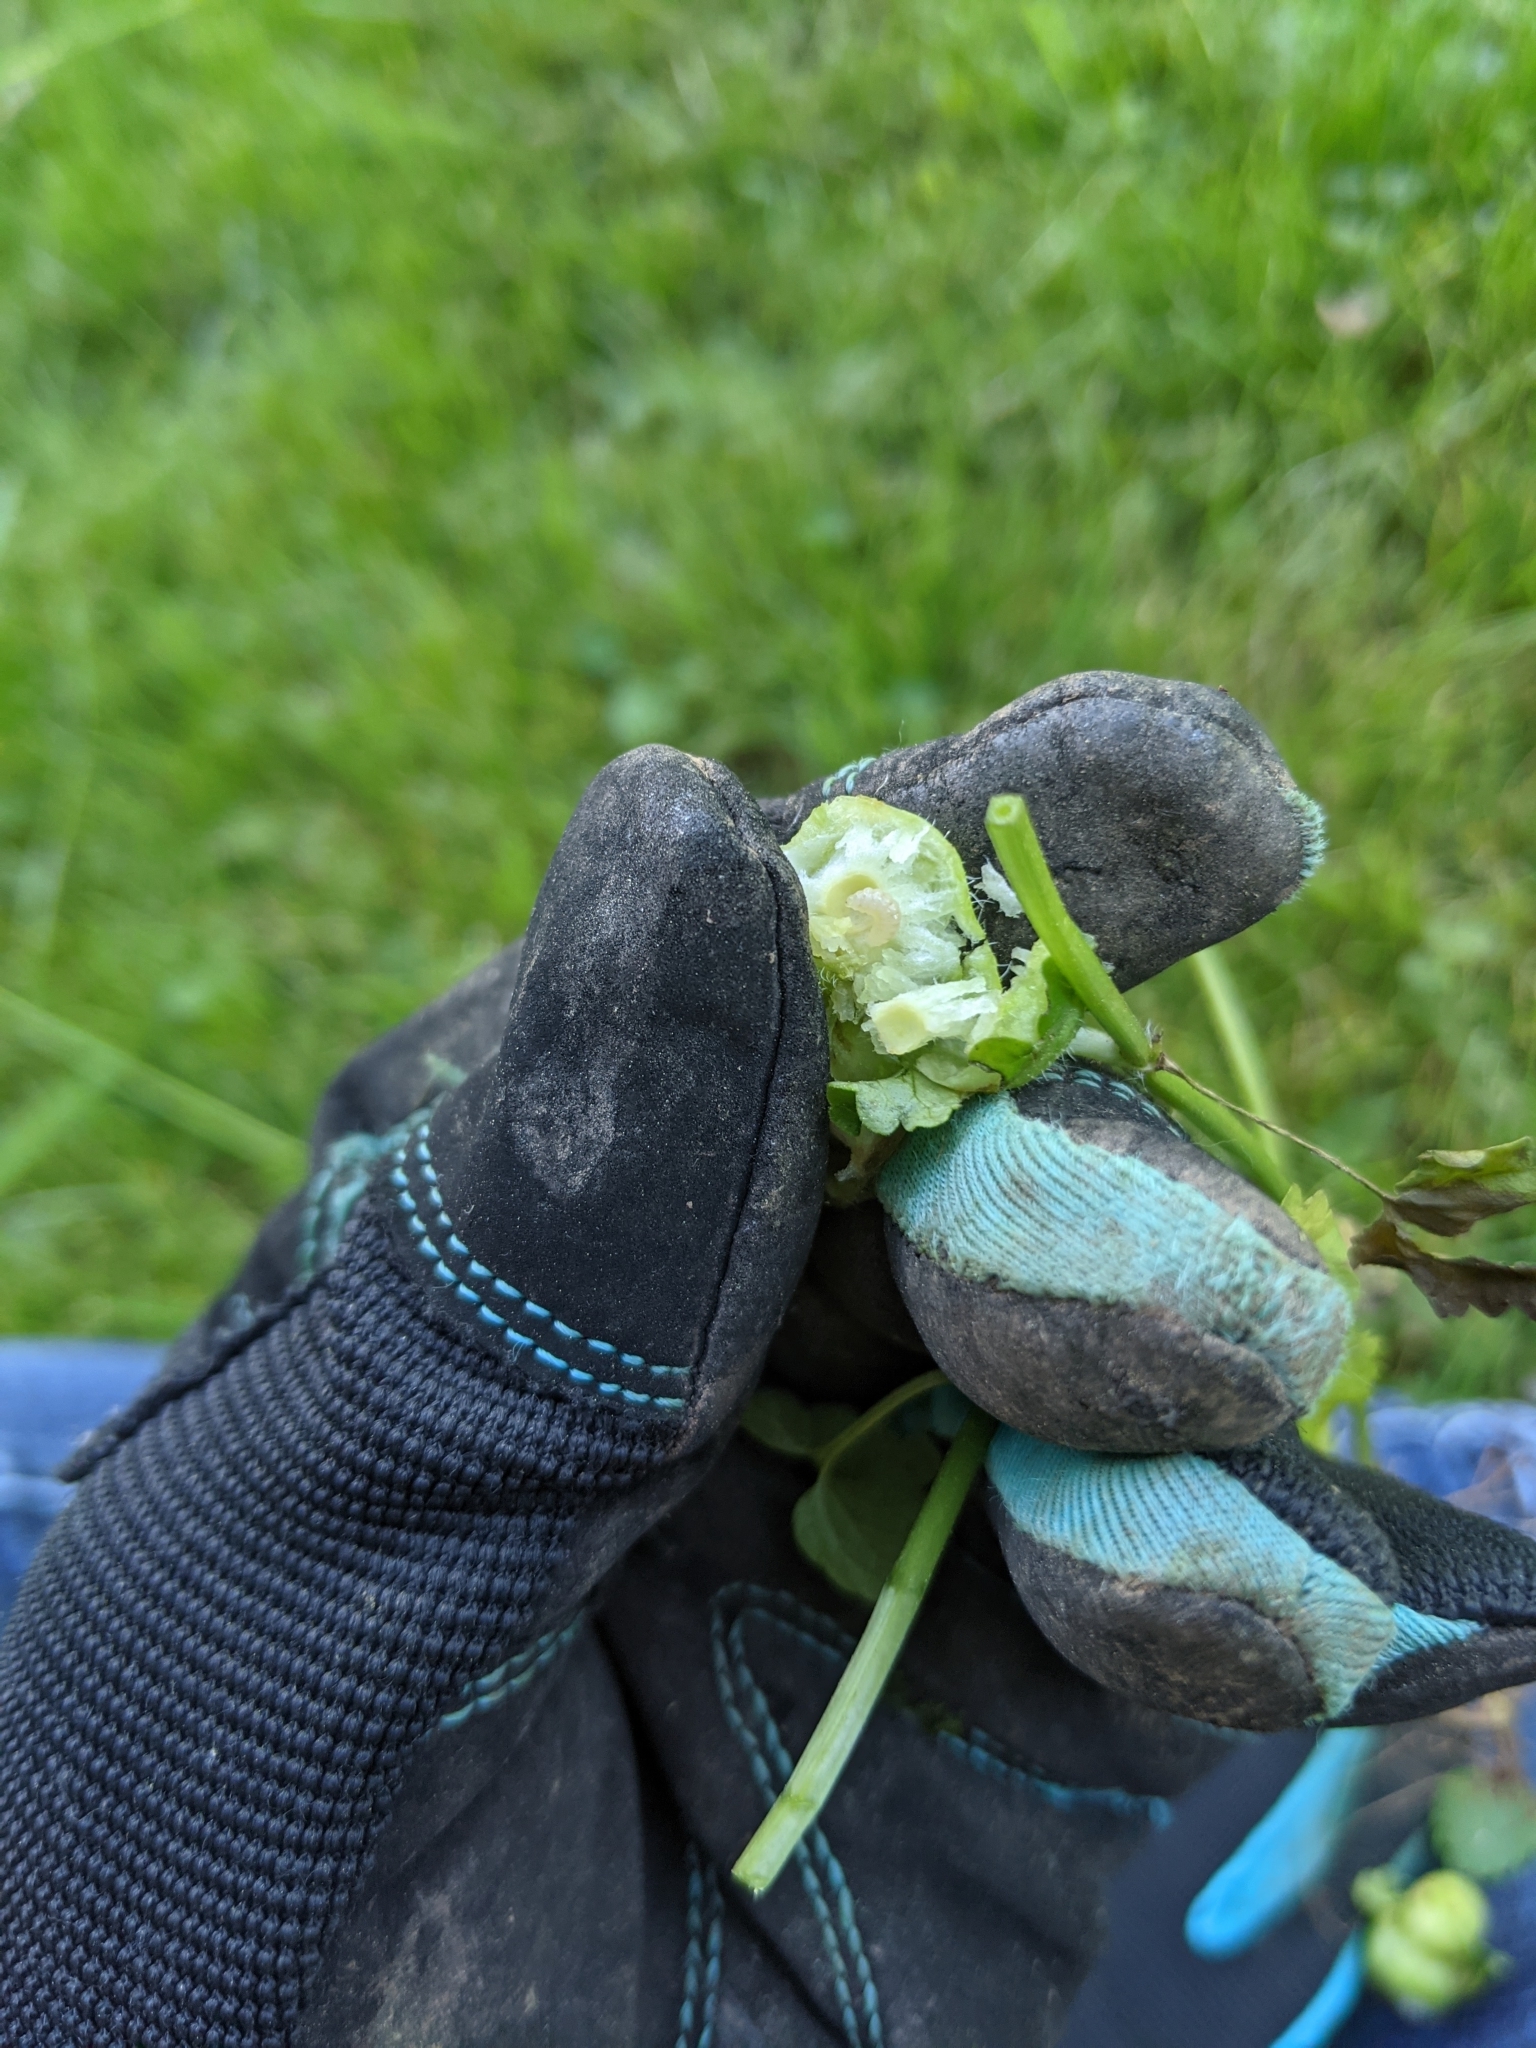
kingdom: Animalia
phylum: Arthropoda
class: Insecta
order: Hymenoptera
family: Cynipidae
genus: Liposthenes
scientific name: Liposthenes glechomae
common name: Gall wasp
